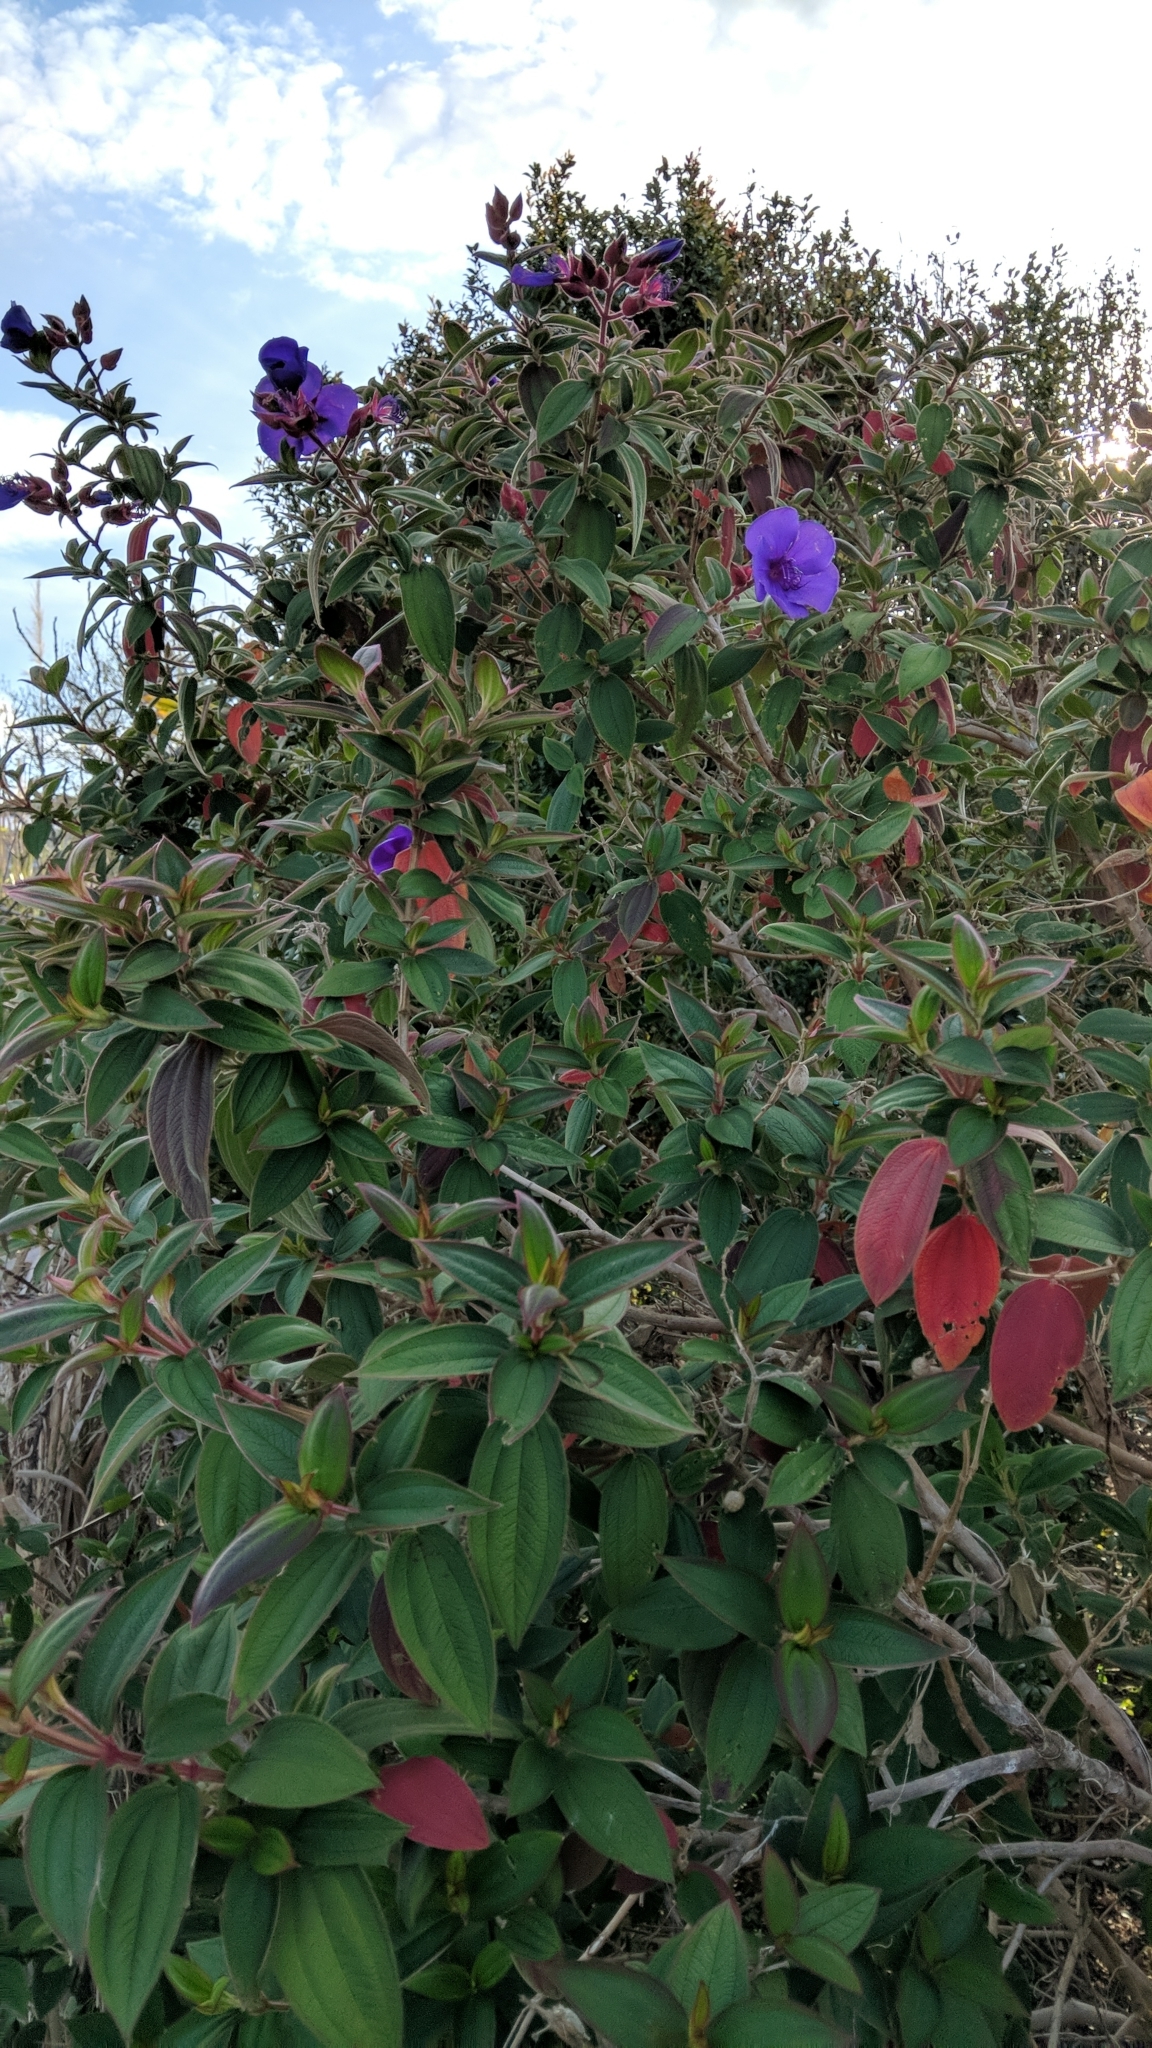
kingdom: Plantae
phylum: Tracheophyta
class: Magnoliopsida
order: Myrtales
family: Melastomataceae
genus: Pleroma
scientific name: Pleroma urvilleanum
